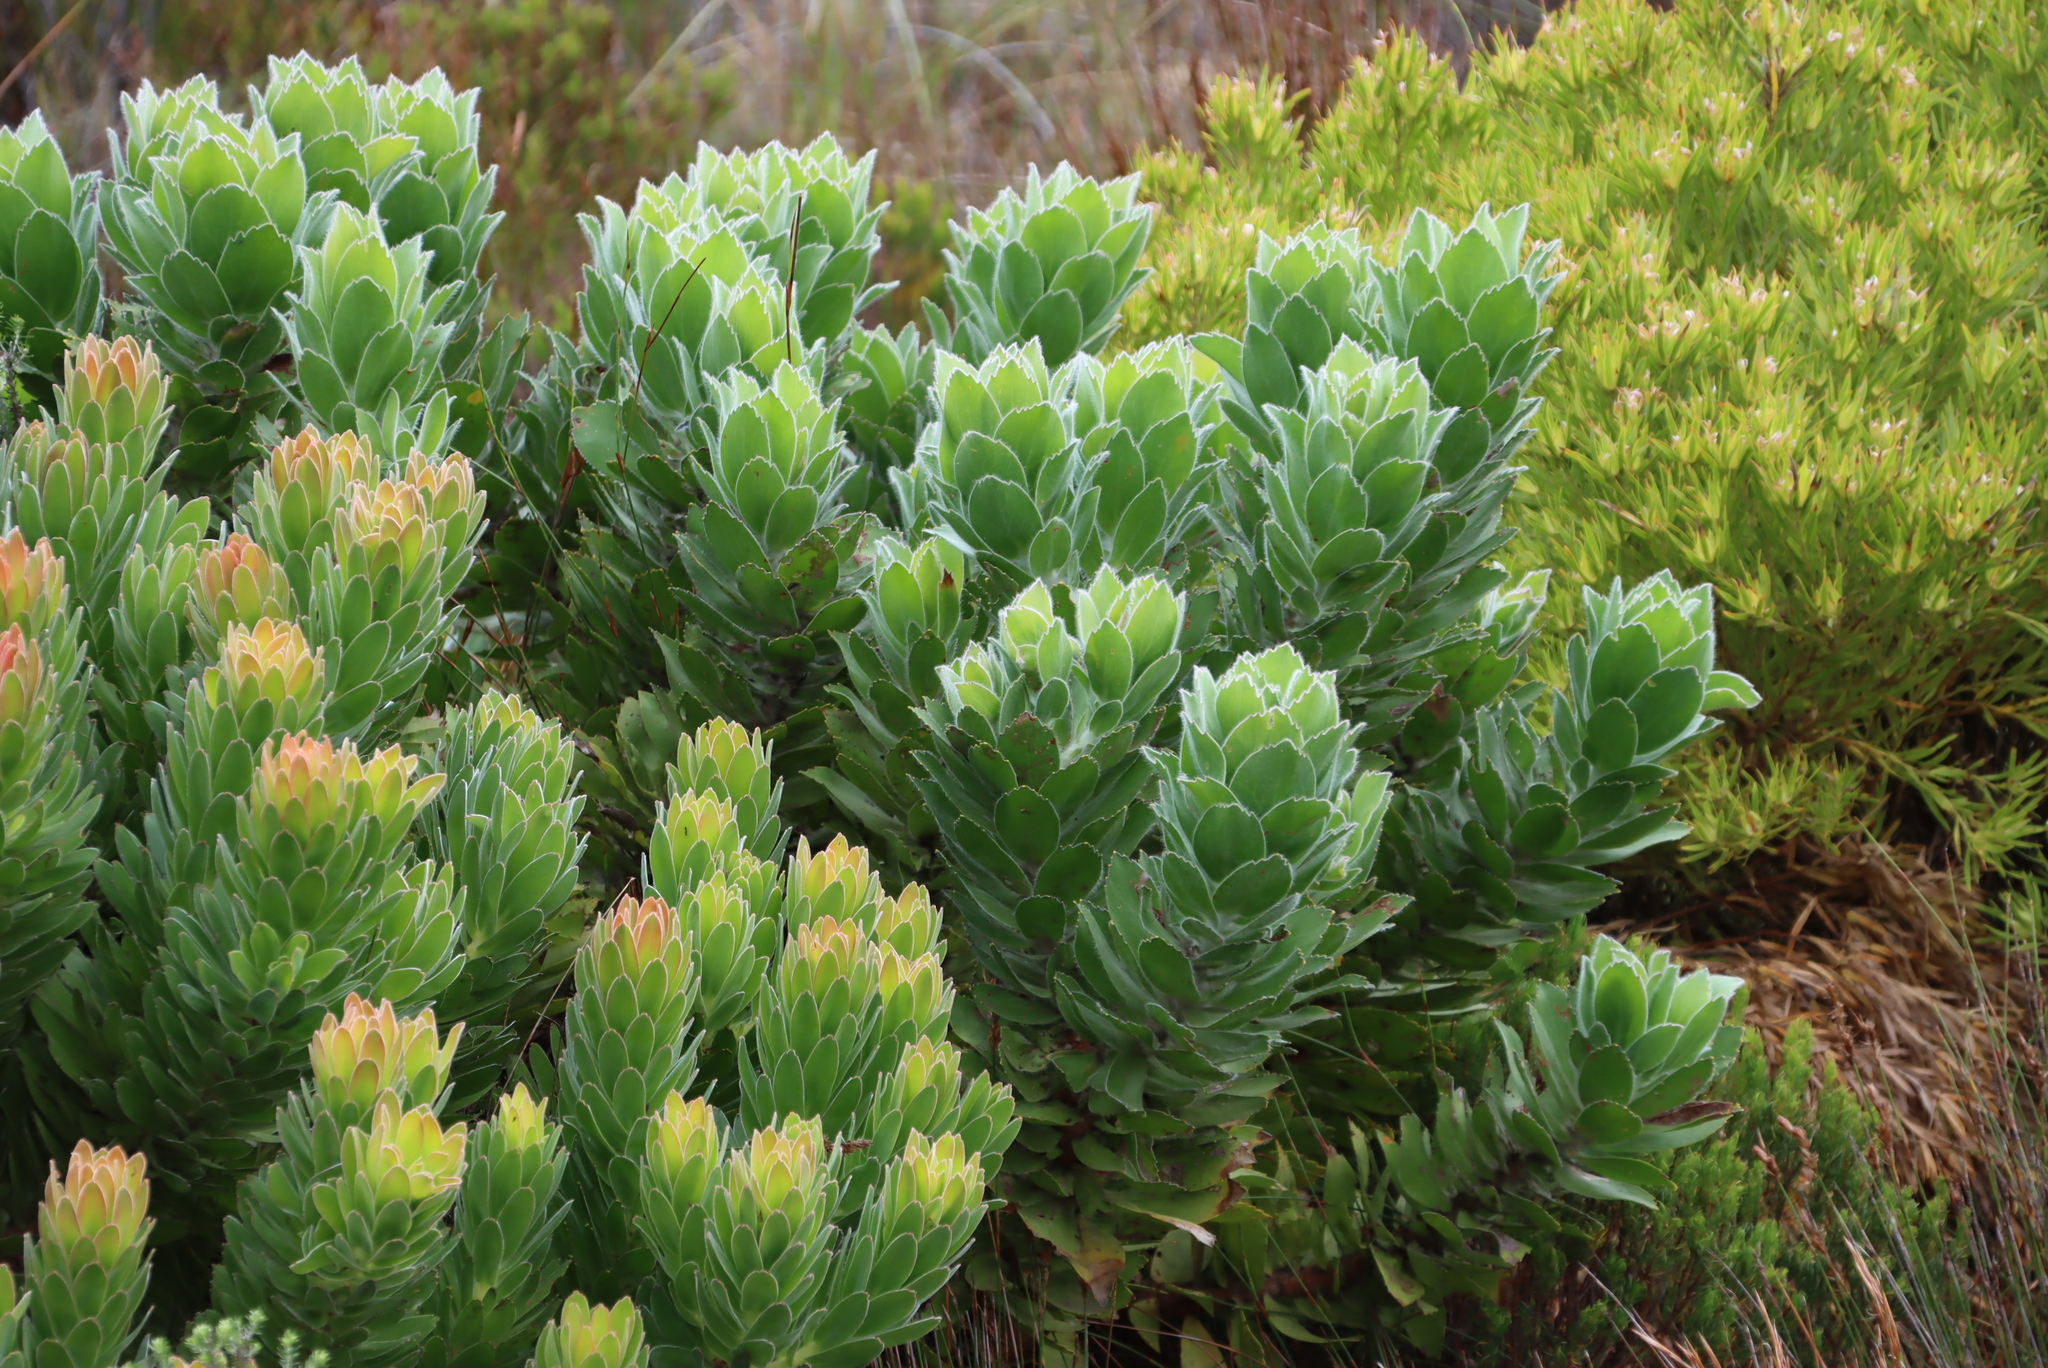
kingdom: Plantae
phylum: Tracheophyta
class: Magnoliopsida
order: Proteales
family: Proteaceae
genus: Leucospermum
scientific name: Leucospermum conocarpodendron
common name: Tree pincushion
